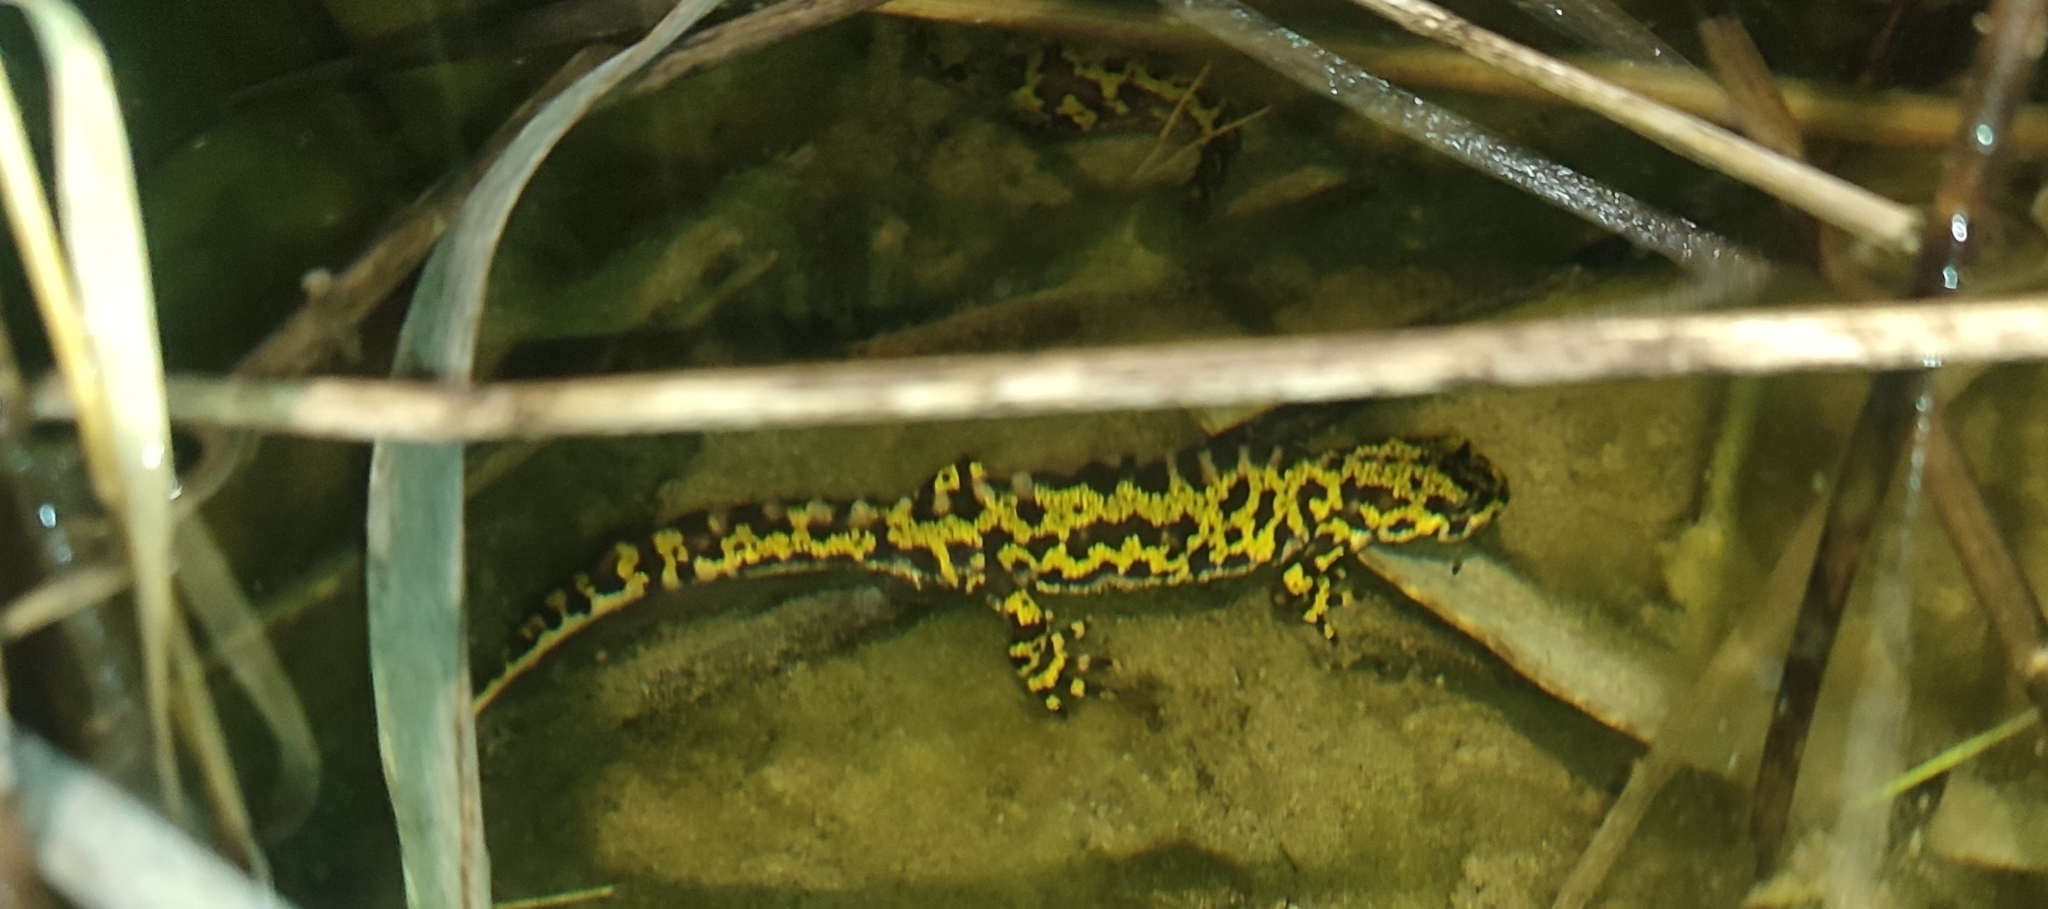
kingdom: Animalia
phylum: Chordata
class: Amphibia
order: Caudata
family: Salamandridae
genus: Triturus
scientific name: Triturus marmoratus
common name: Marbled newt
